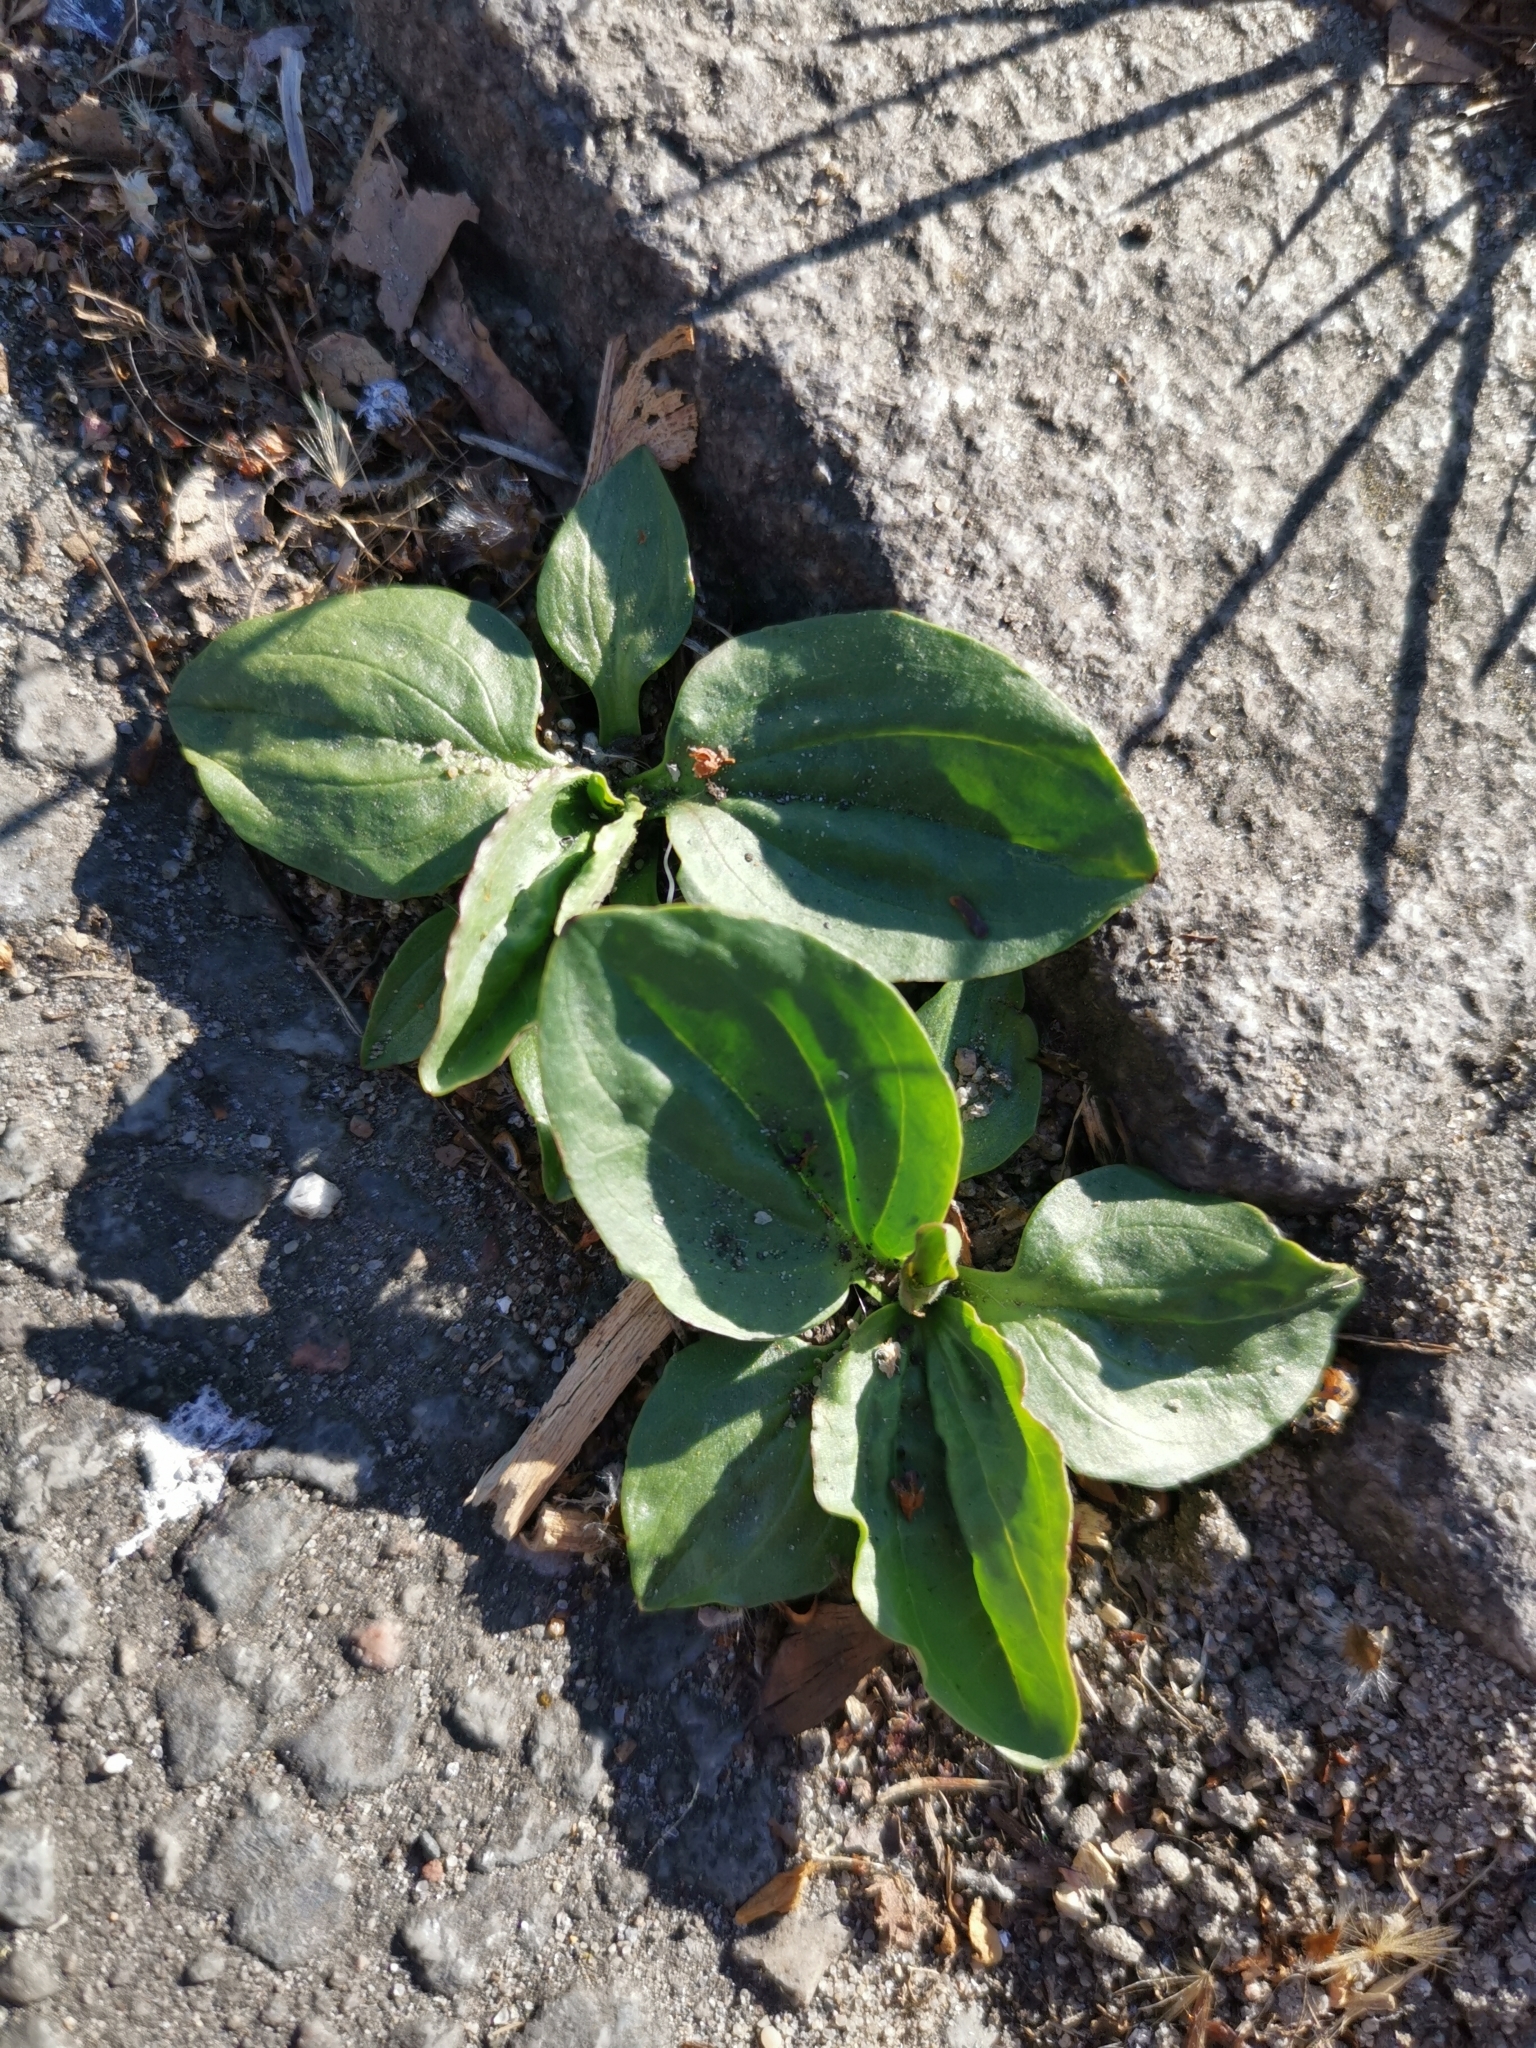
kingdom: Plantae
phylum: Tracheophyta
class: Magnoliopsida
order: Lamiales
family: Plantaginaceae
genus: Plantago
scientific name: Plantago major
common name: Common plantain
